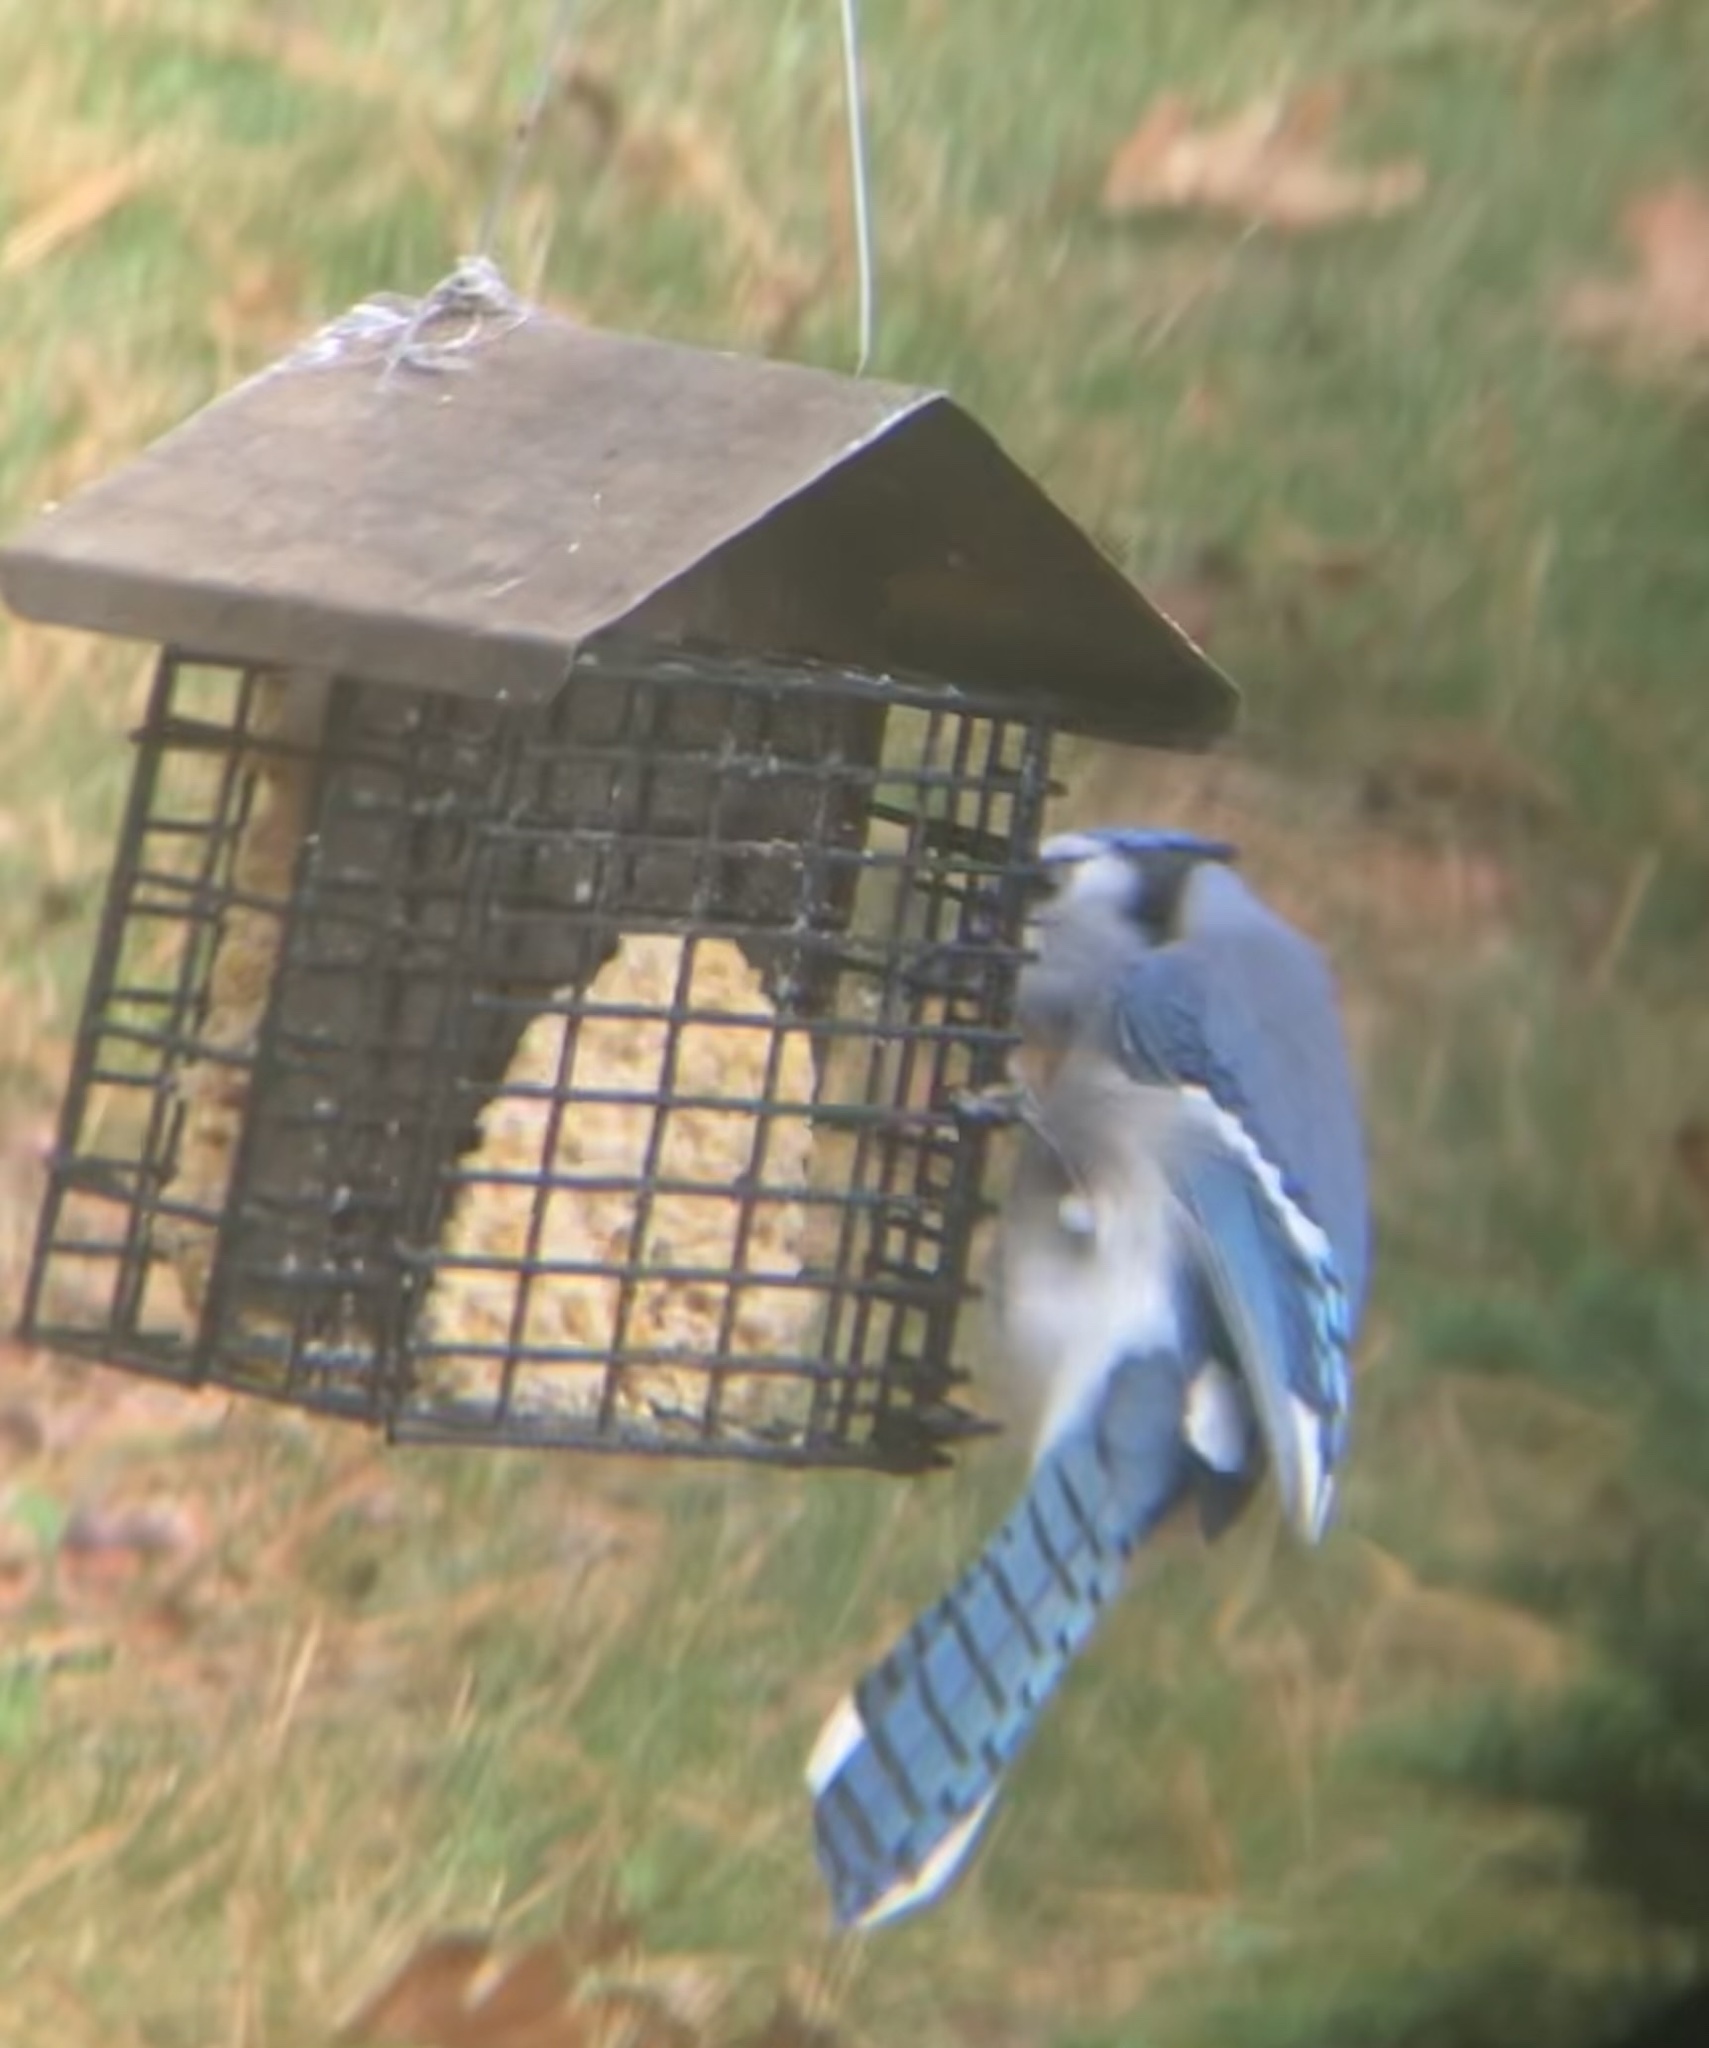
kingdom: Animalia
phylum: Chordata
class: Aves
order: Passeriformes
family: Corvidae
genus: Cyanocitta
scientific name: Cyanocitta cristata
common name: Blue jay
